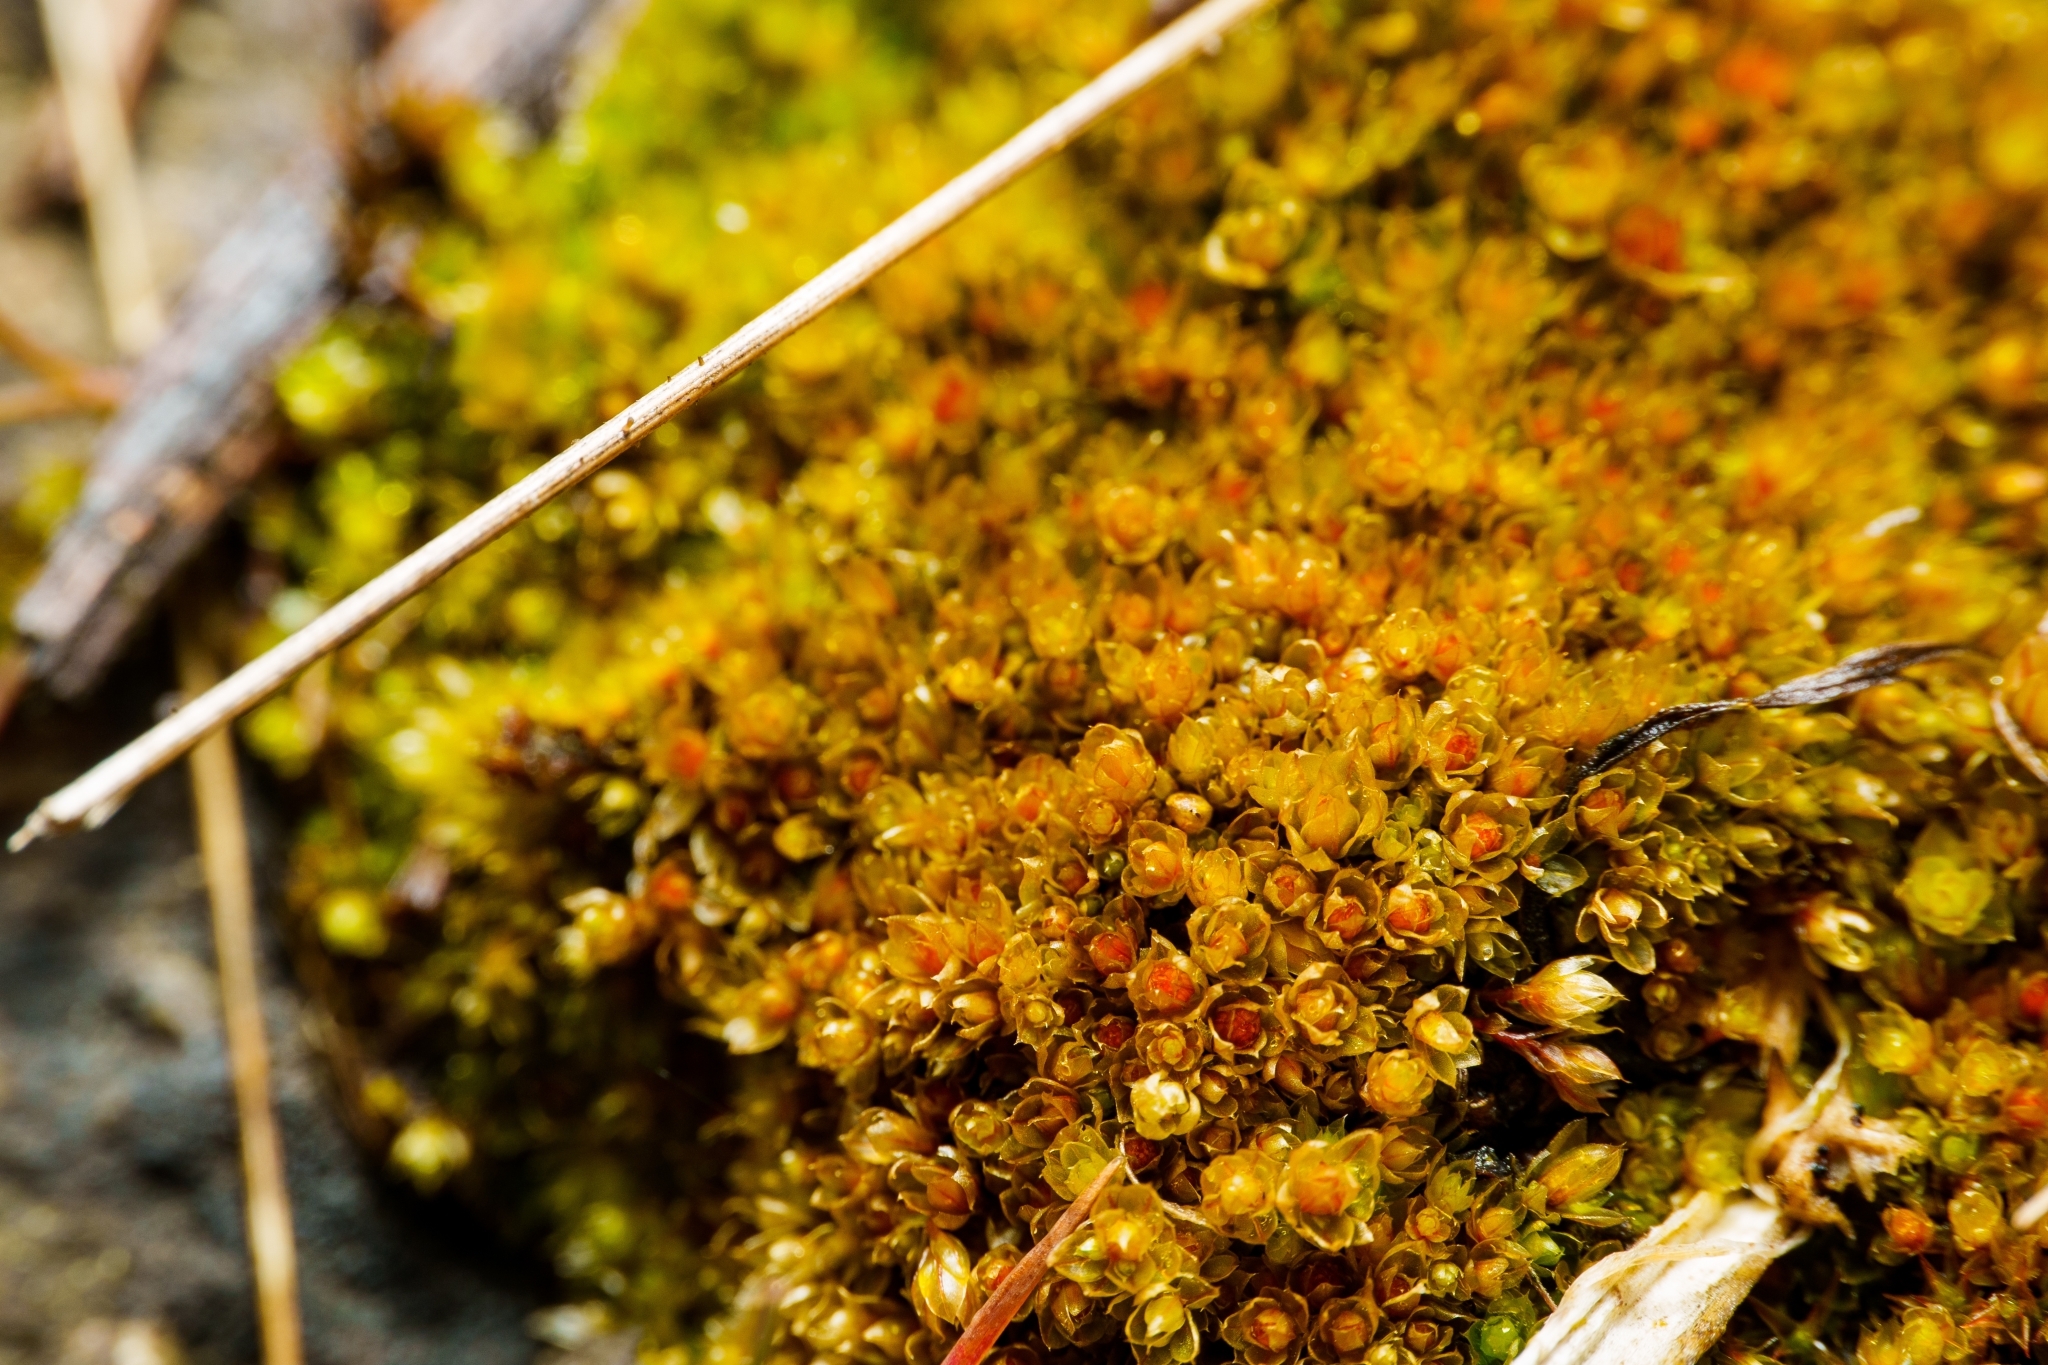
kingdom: Plantae
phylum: Bryophyta
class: Bryopsida
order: Bryales
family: Bryaceae
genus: Rosulabryum
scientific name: Rosulabryum capillare
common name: Capillary thread-moss
